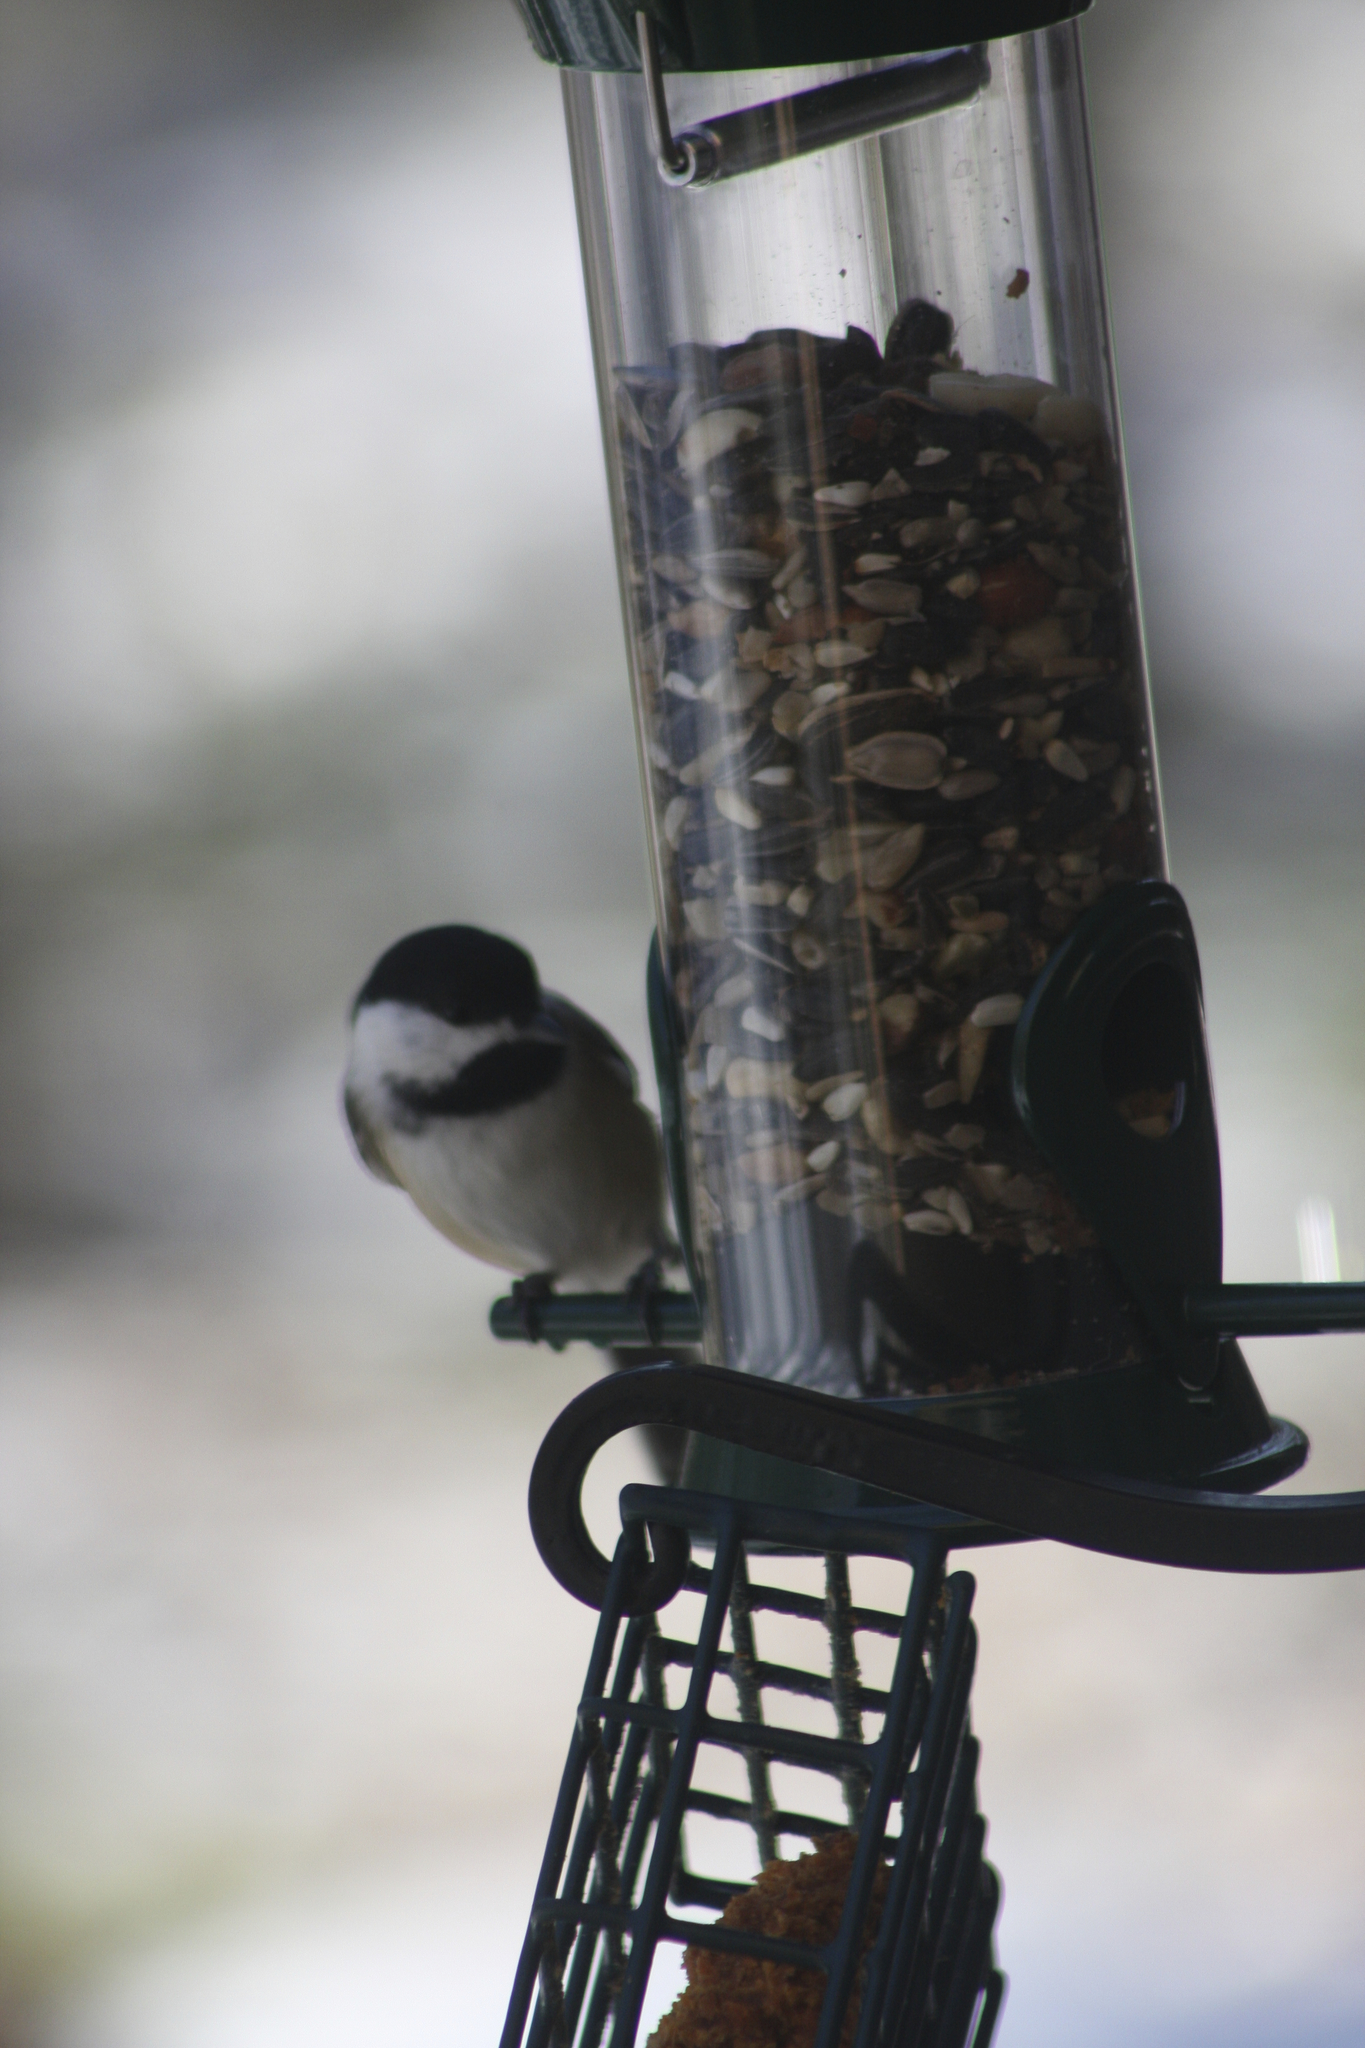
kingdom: Animalia
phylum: Chordata
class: Aves
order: Passeriformes
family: Paridae
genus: Poecile
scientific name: Poecile atricapillus
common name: Black-capped chickadee
